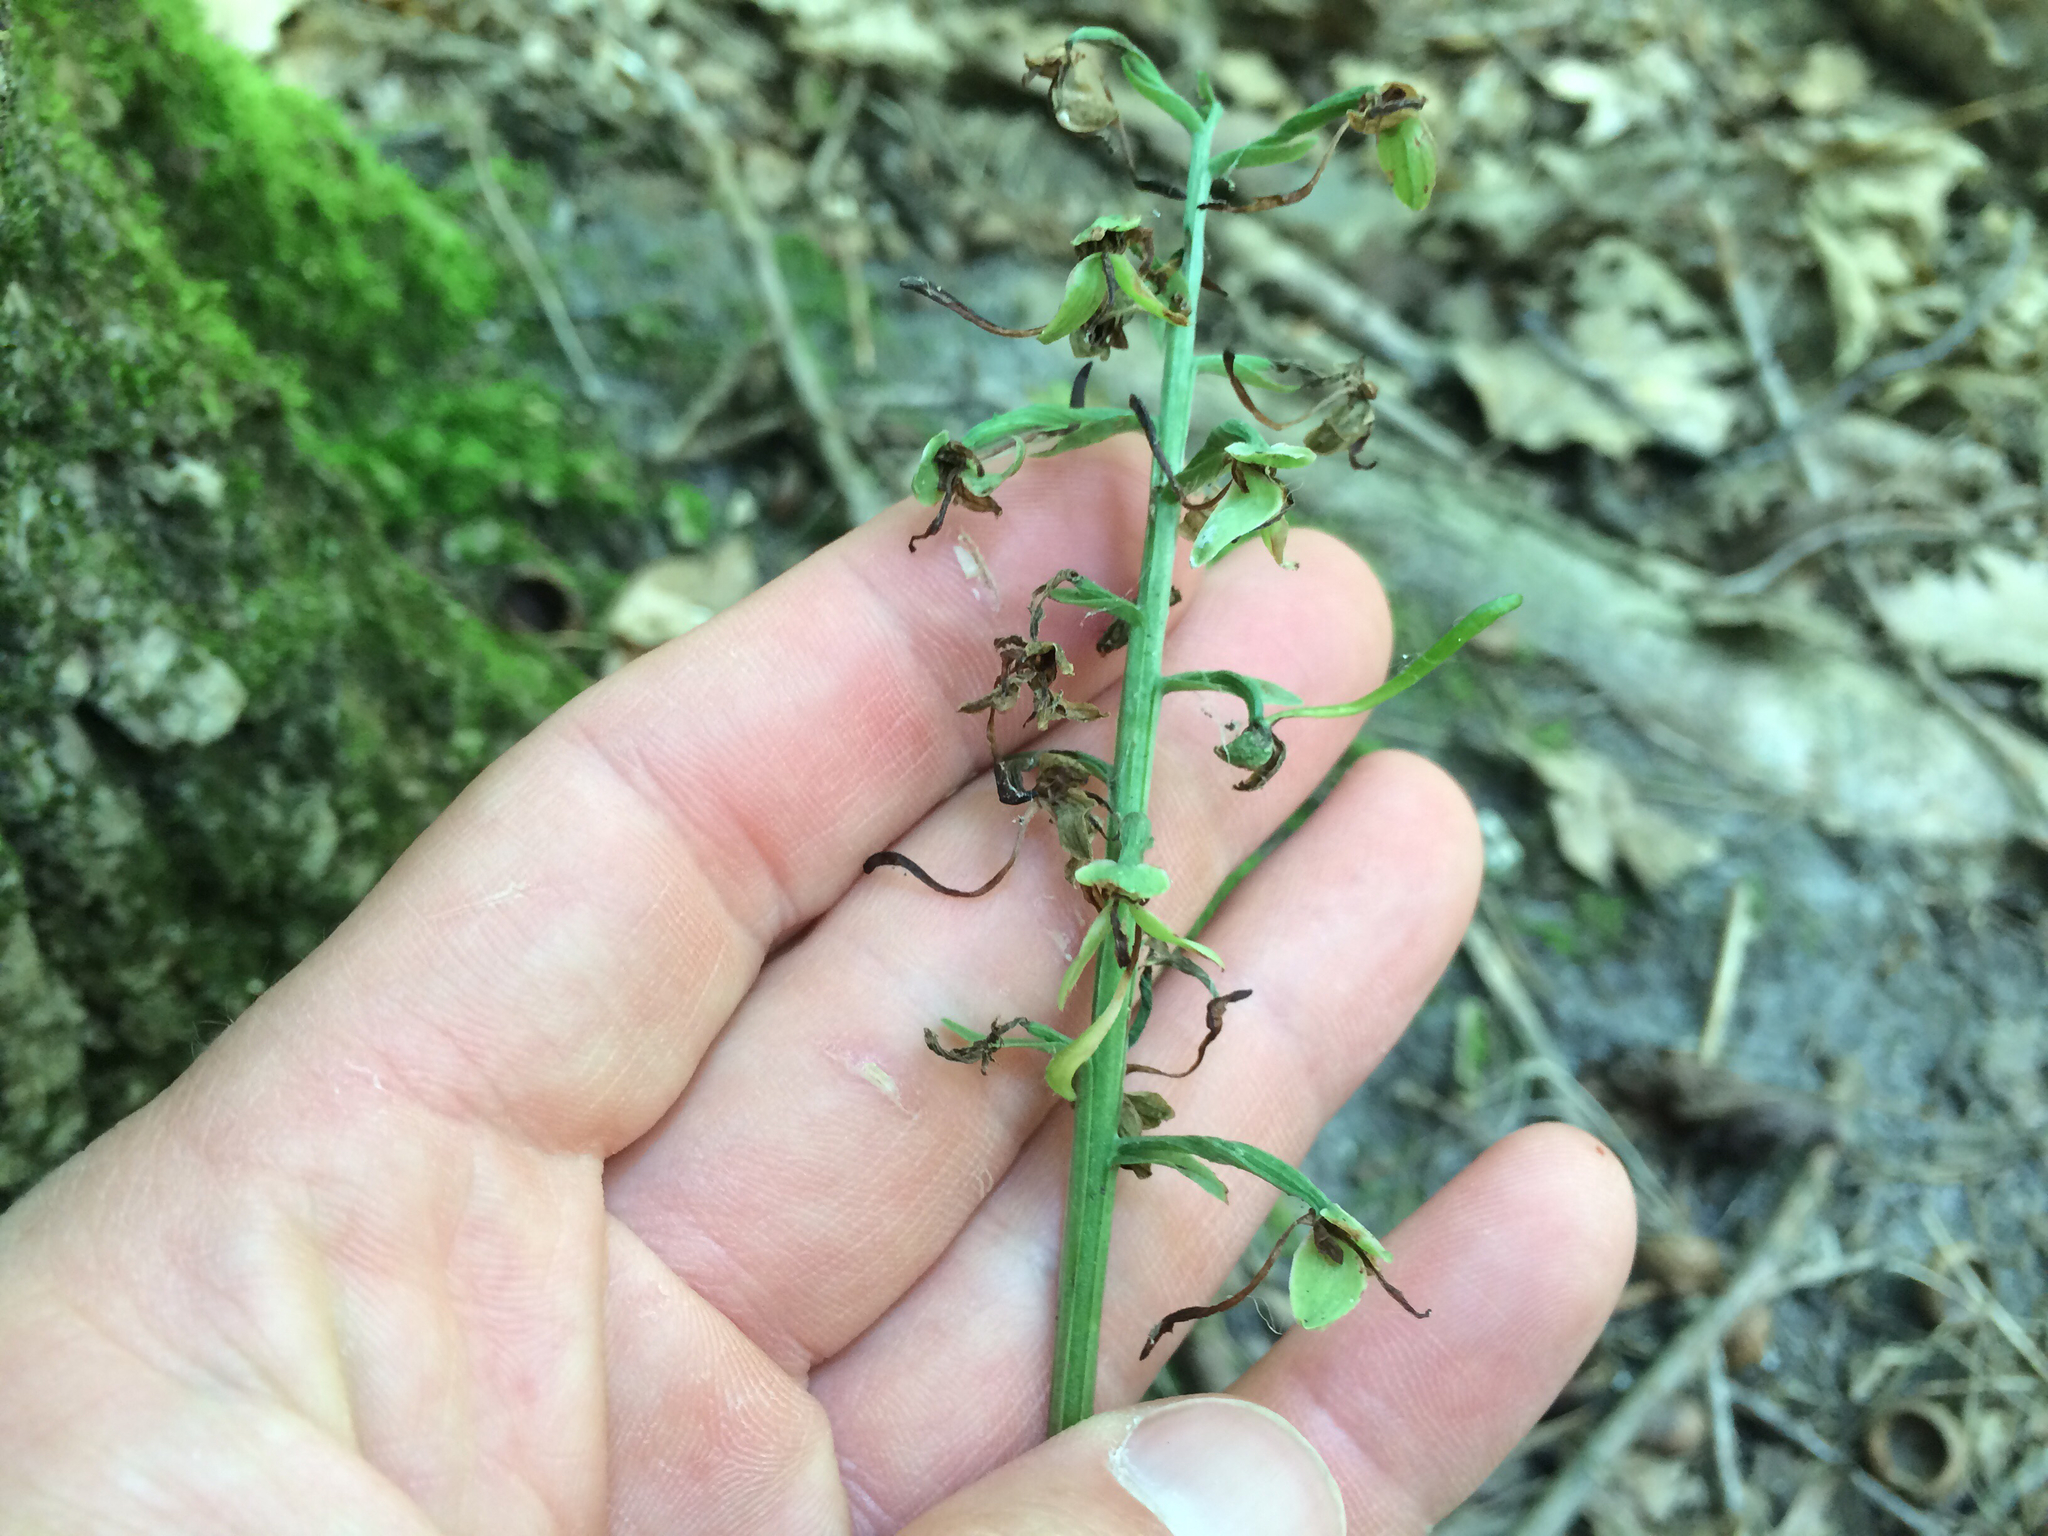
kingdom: Plantae
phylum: Tracheophyta
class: Liliopsida
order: Asparagales
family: Orchidaceae
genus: Platanthera
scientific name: Platanthera orbiculata
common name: Large round-leaved orchid
